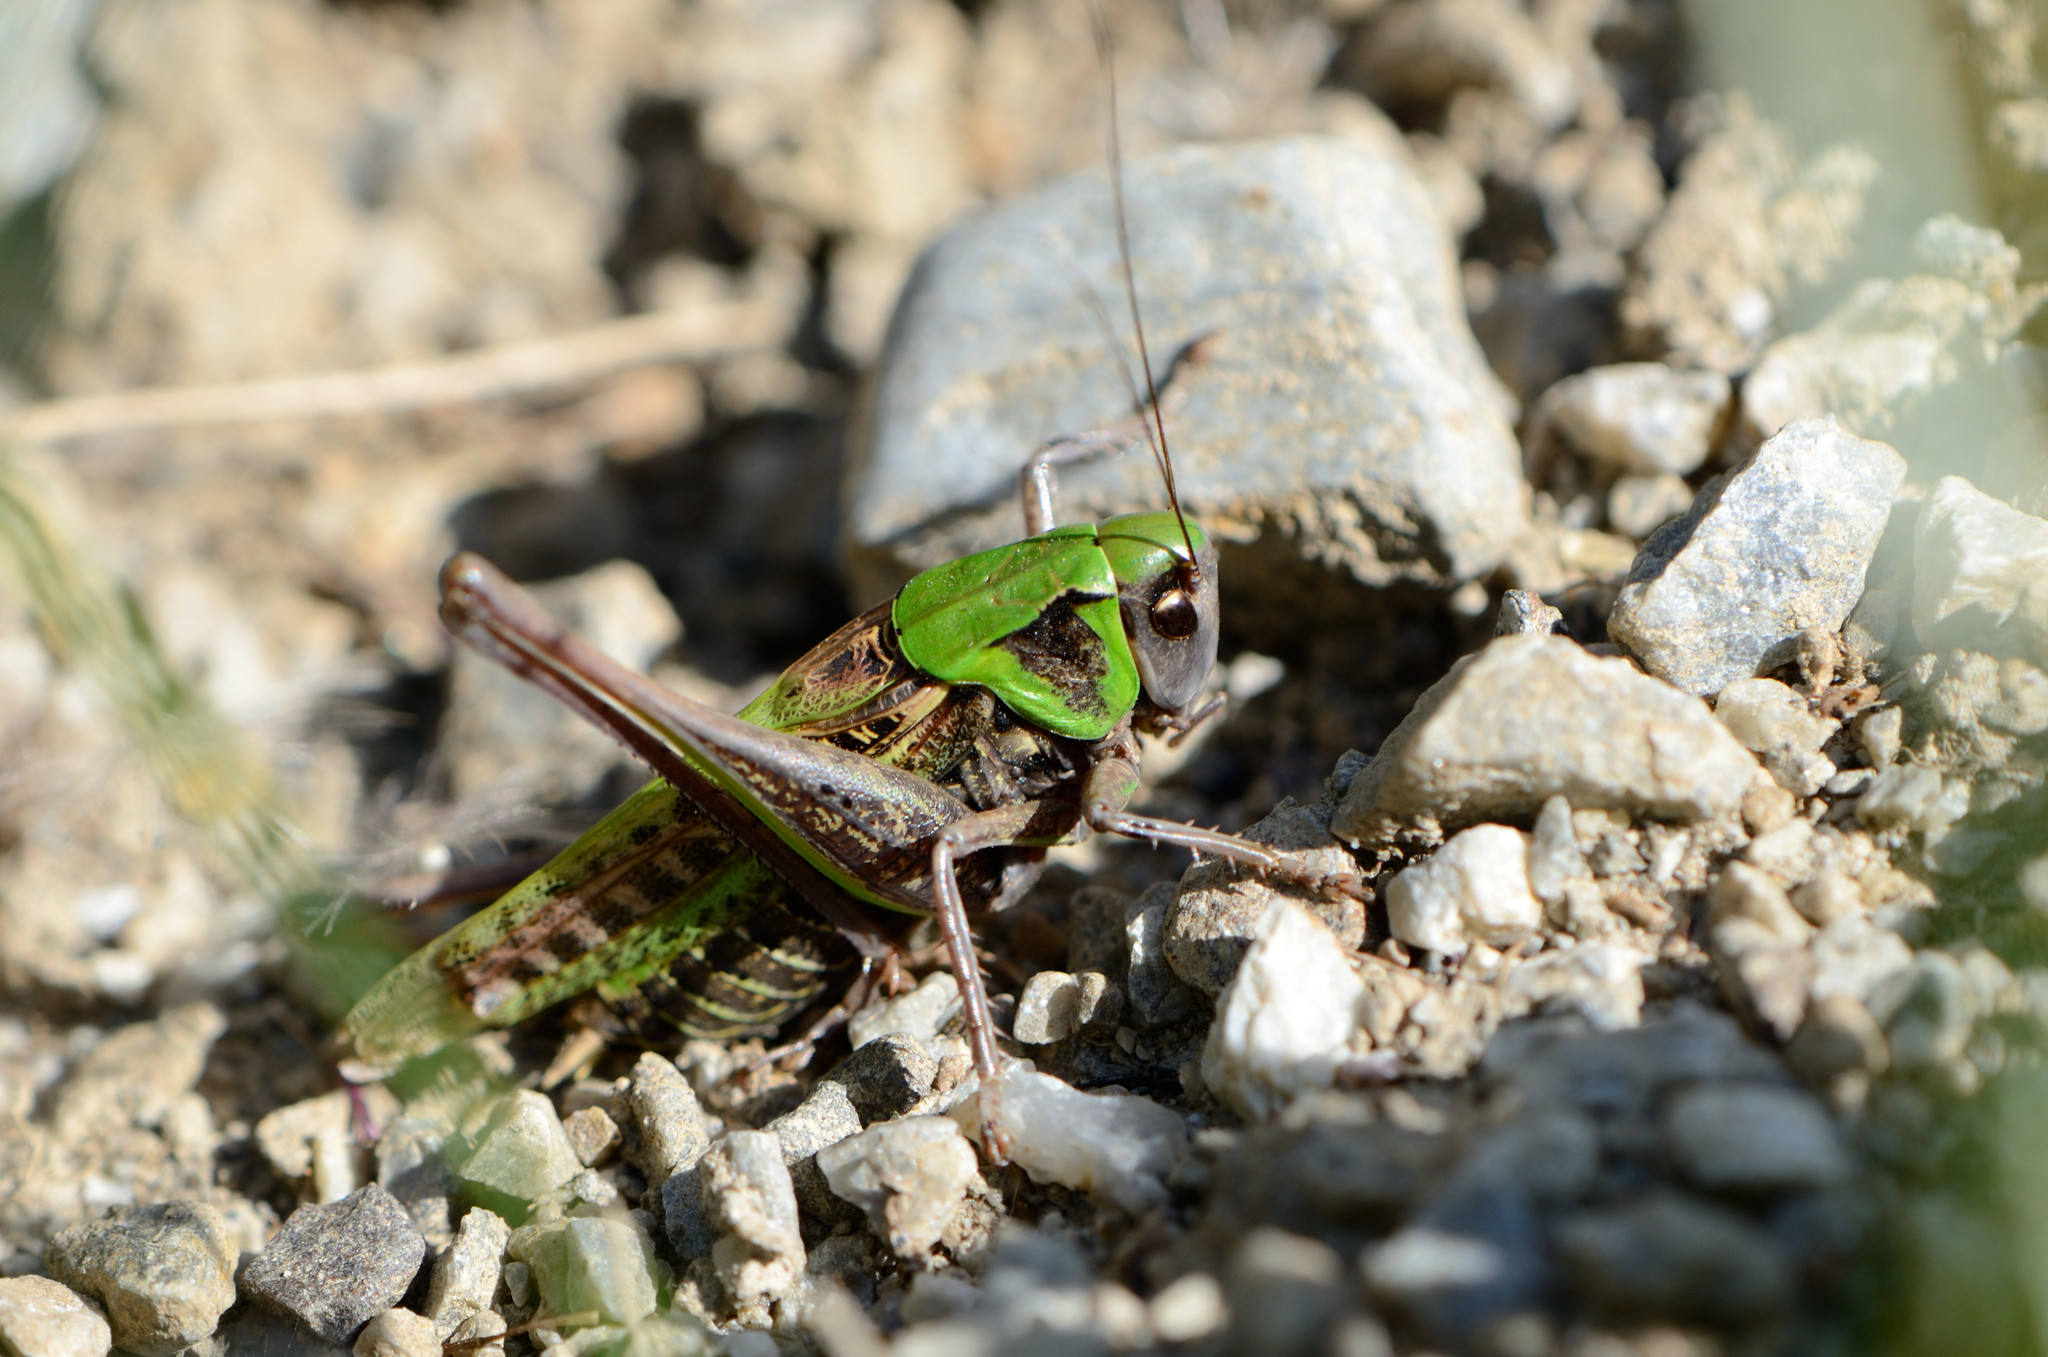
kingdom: Animalia
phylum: Arthropoda
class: Insecta
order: Orthoptera
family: Tettigoniidae
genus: Decticus
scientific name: Decticus verrucivorus
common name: Wart-biter
